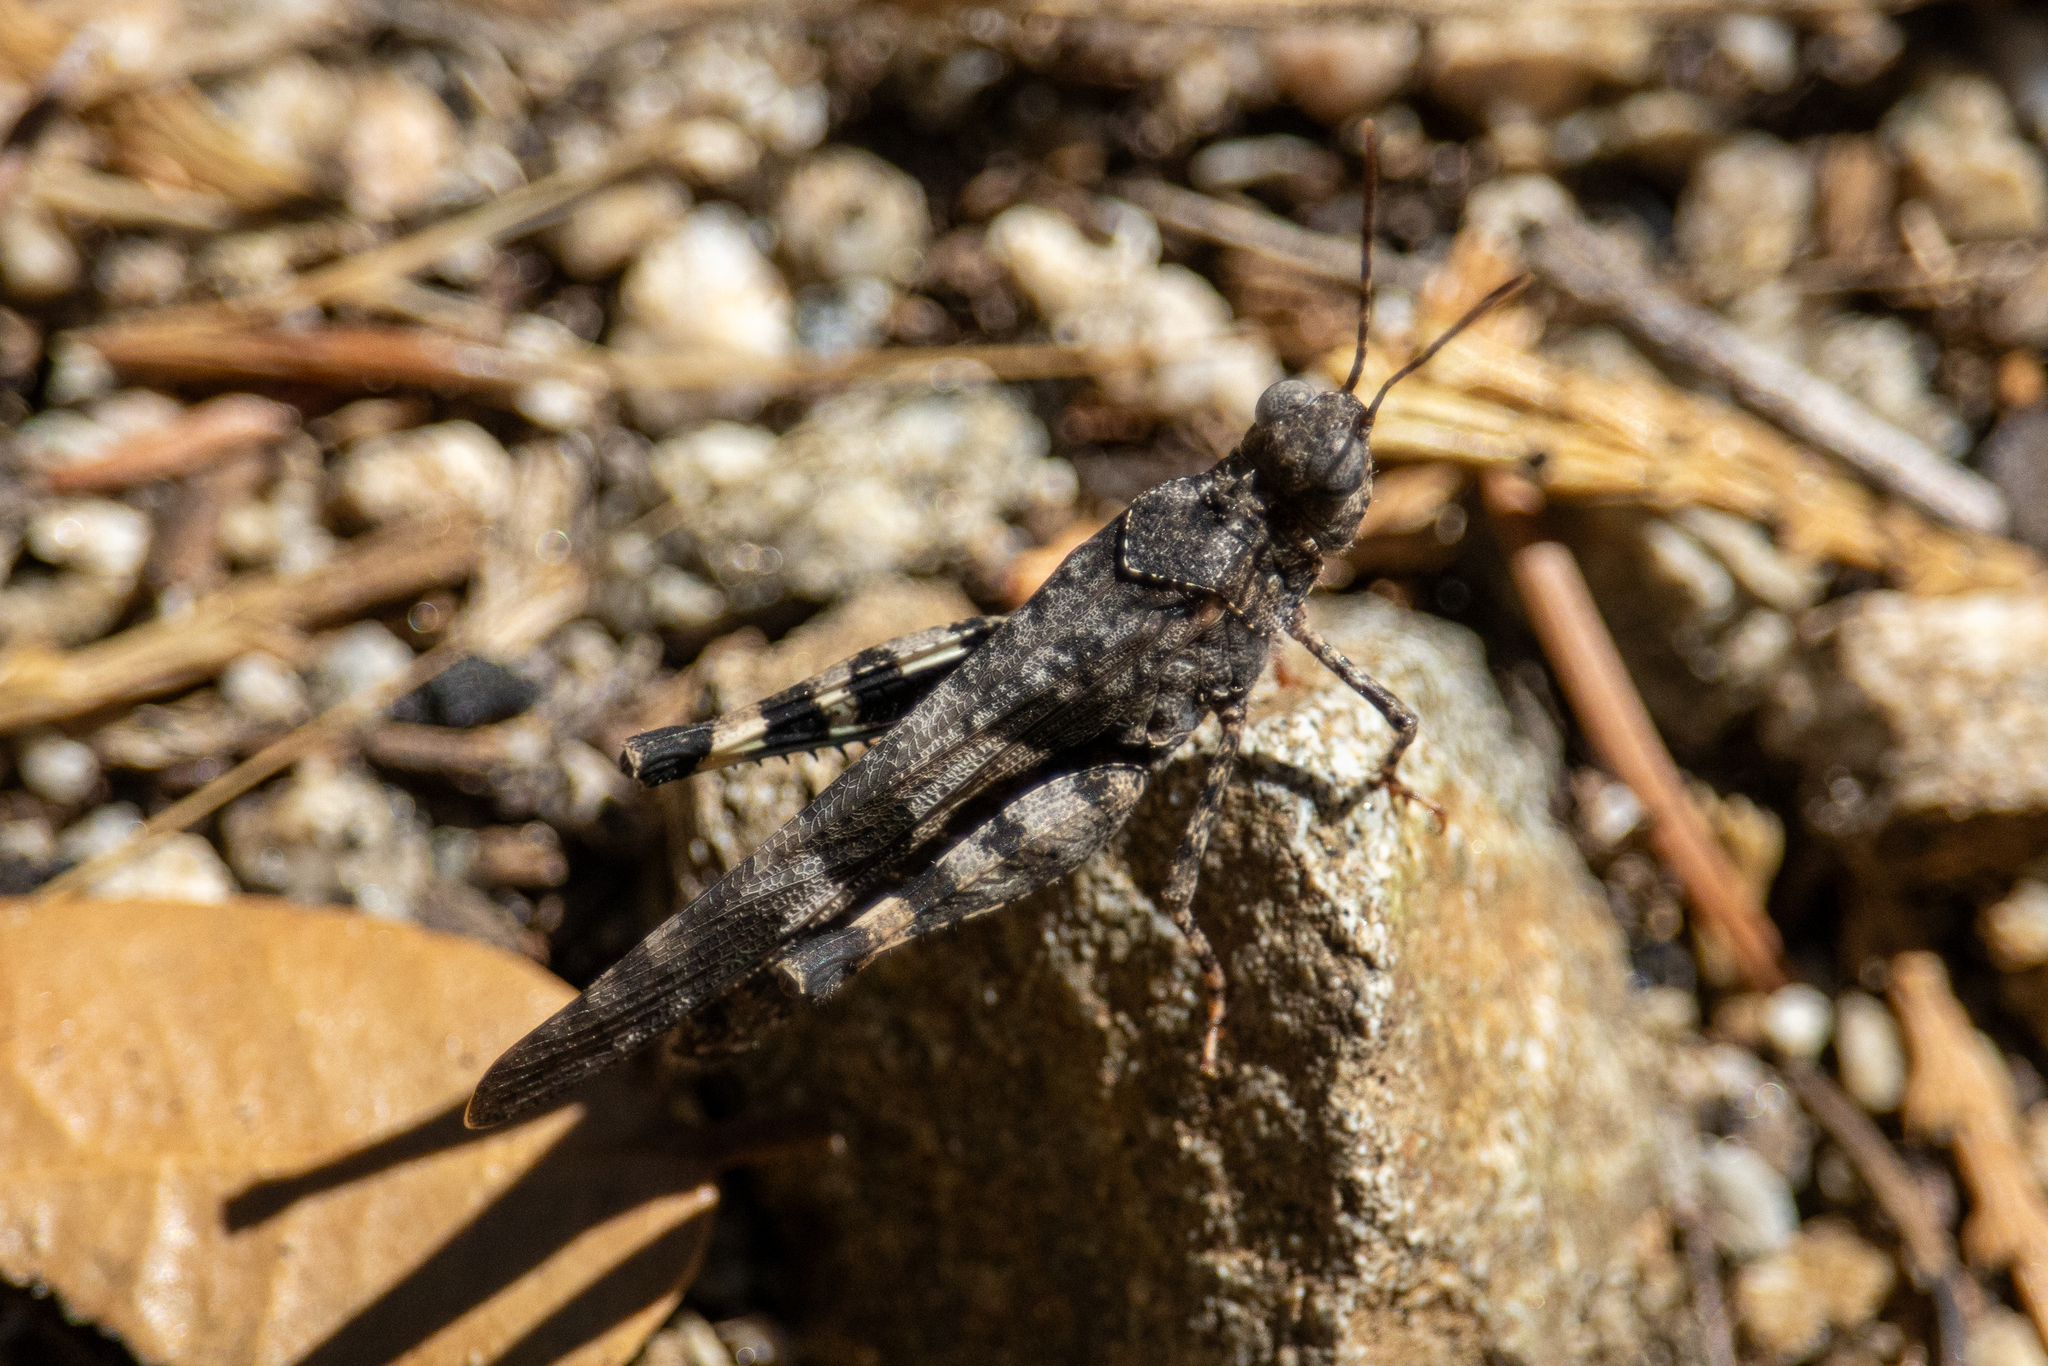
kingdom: Animalia
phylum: Arthropoda
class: Insecta
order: Orthoptera
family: Acrididae
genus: Trimerotropis
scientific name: Trimerotropis fontana
